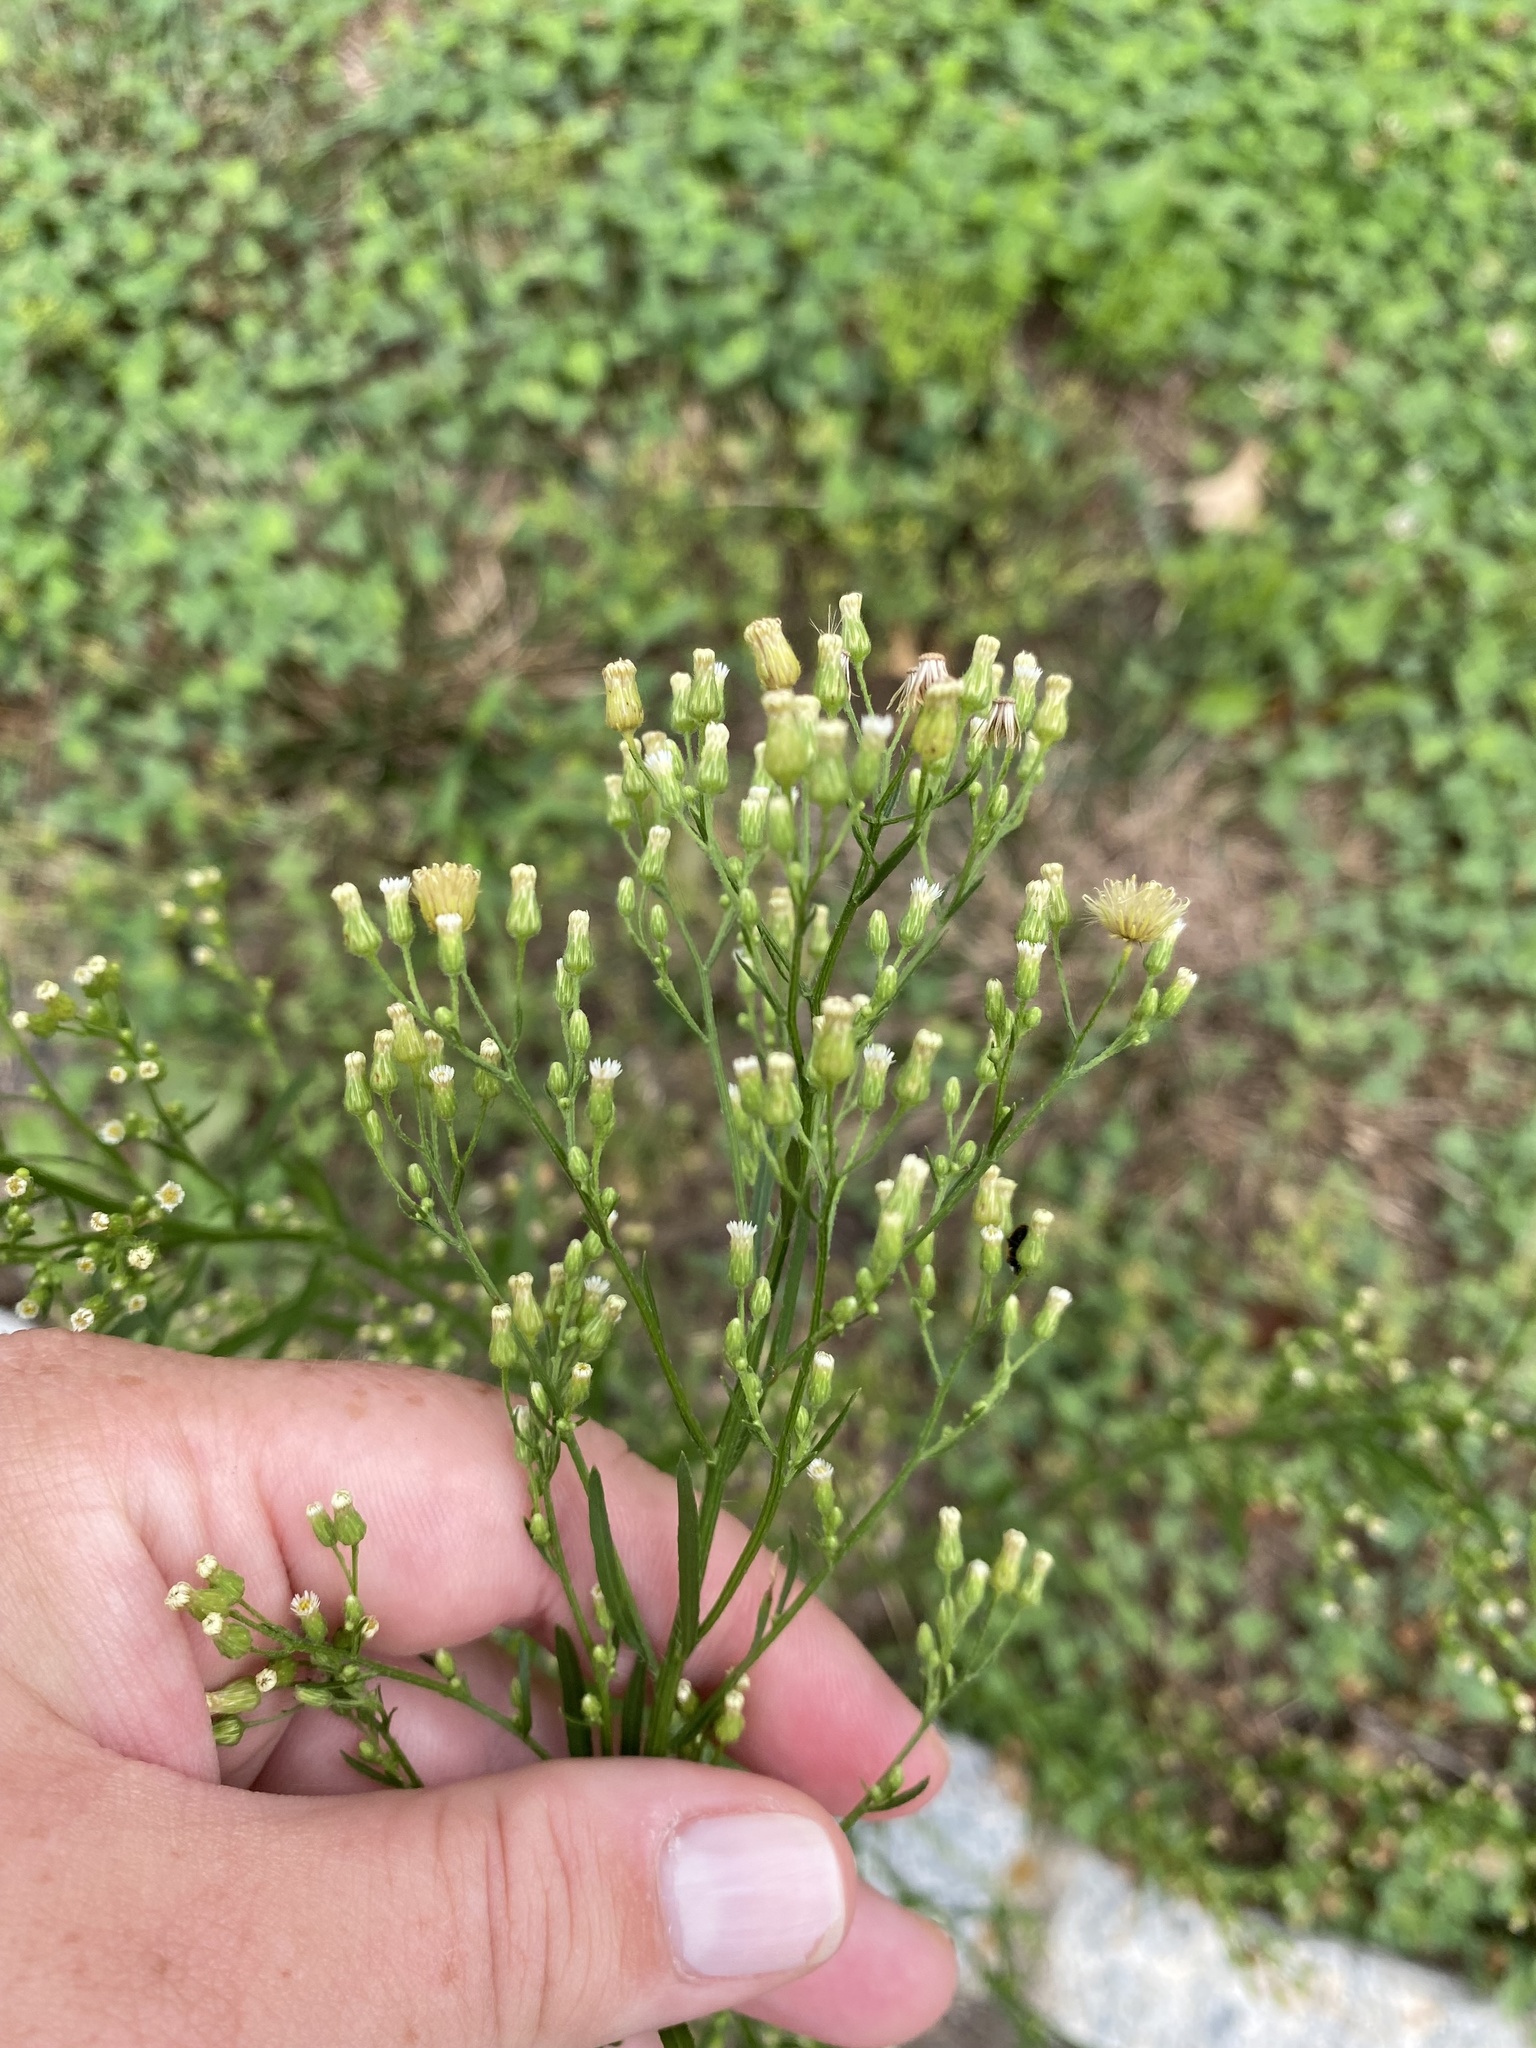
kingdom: Plantae
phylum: Tracheophyta
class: Magnoliopsida
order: Asterales
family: Asteraceae
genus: Erigeron
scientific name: Erigeron canadensis
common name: Canadian fleabane
